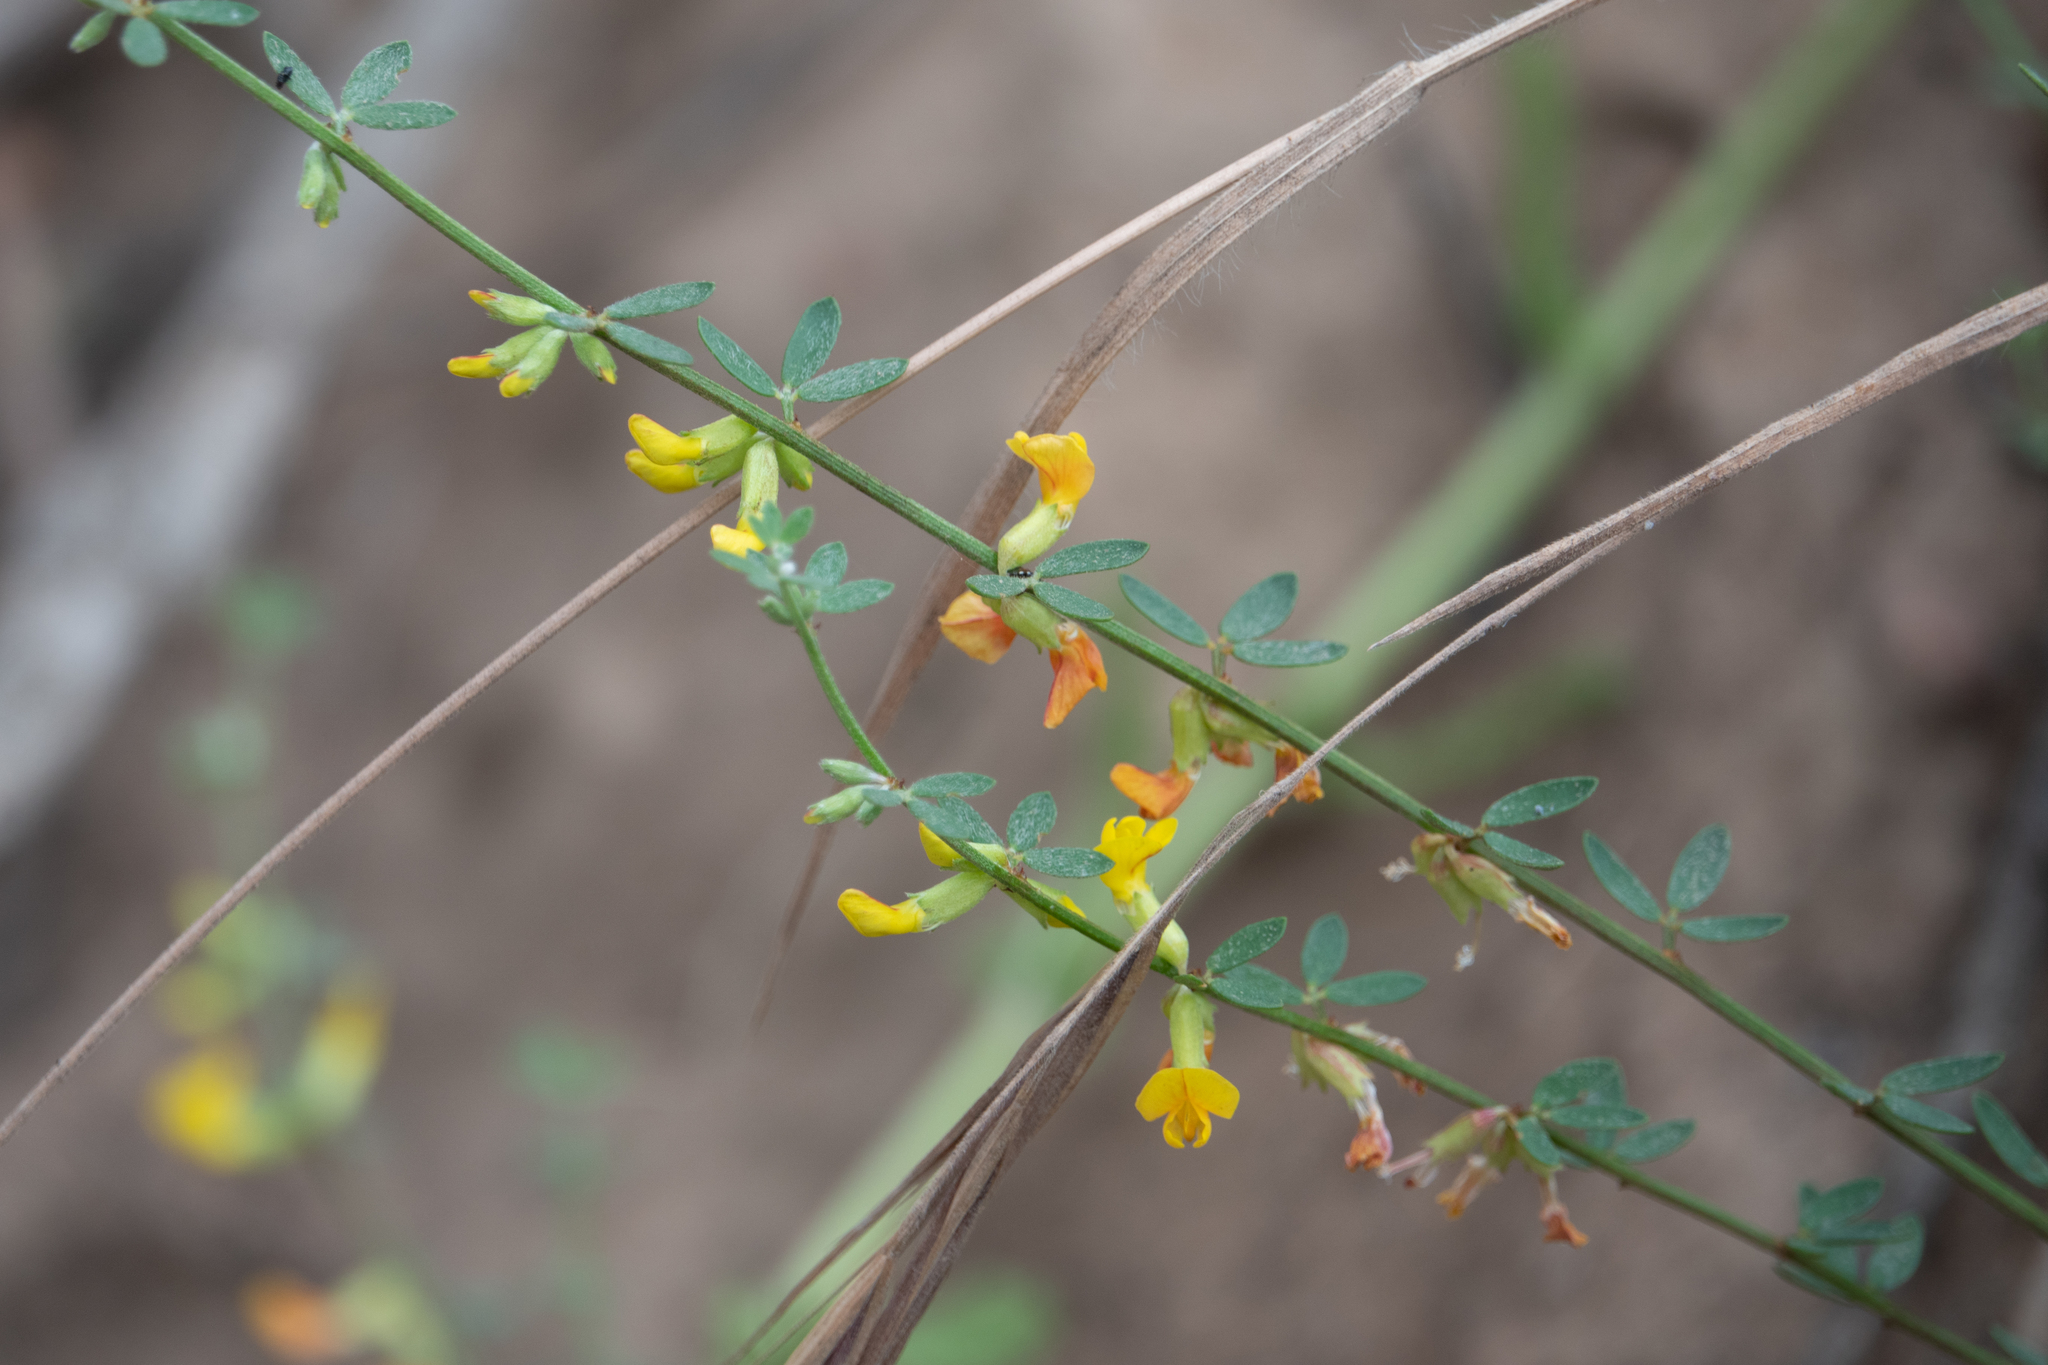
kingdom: Plantae
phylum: Tracheophyta
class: Magnoliopsida
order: Fabales
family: Fabaceae
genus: Acmispon
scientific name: Acmispon glaber
